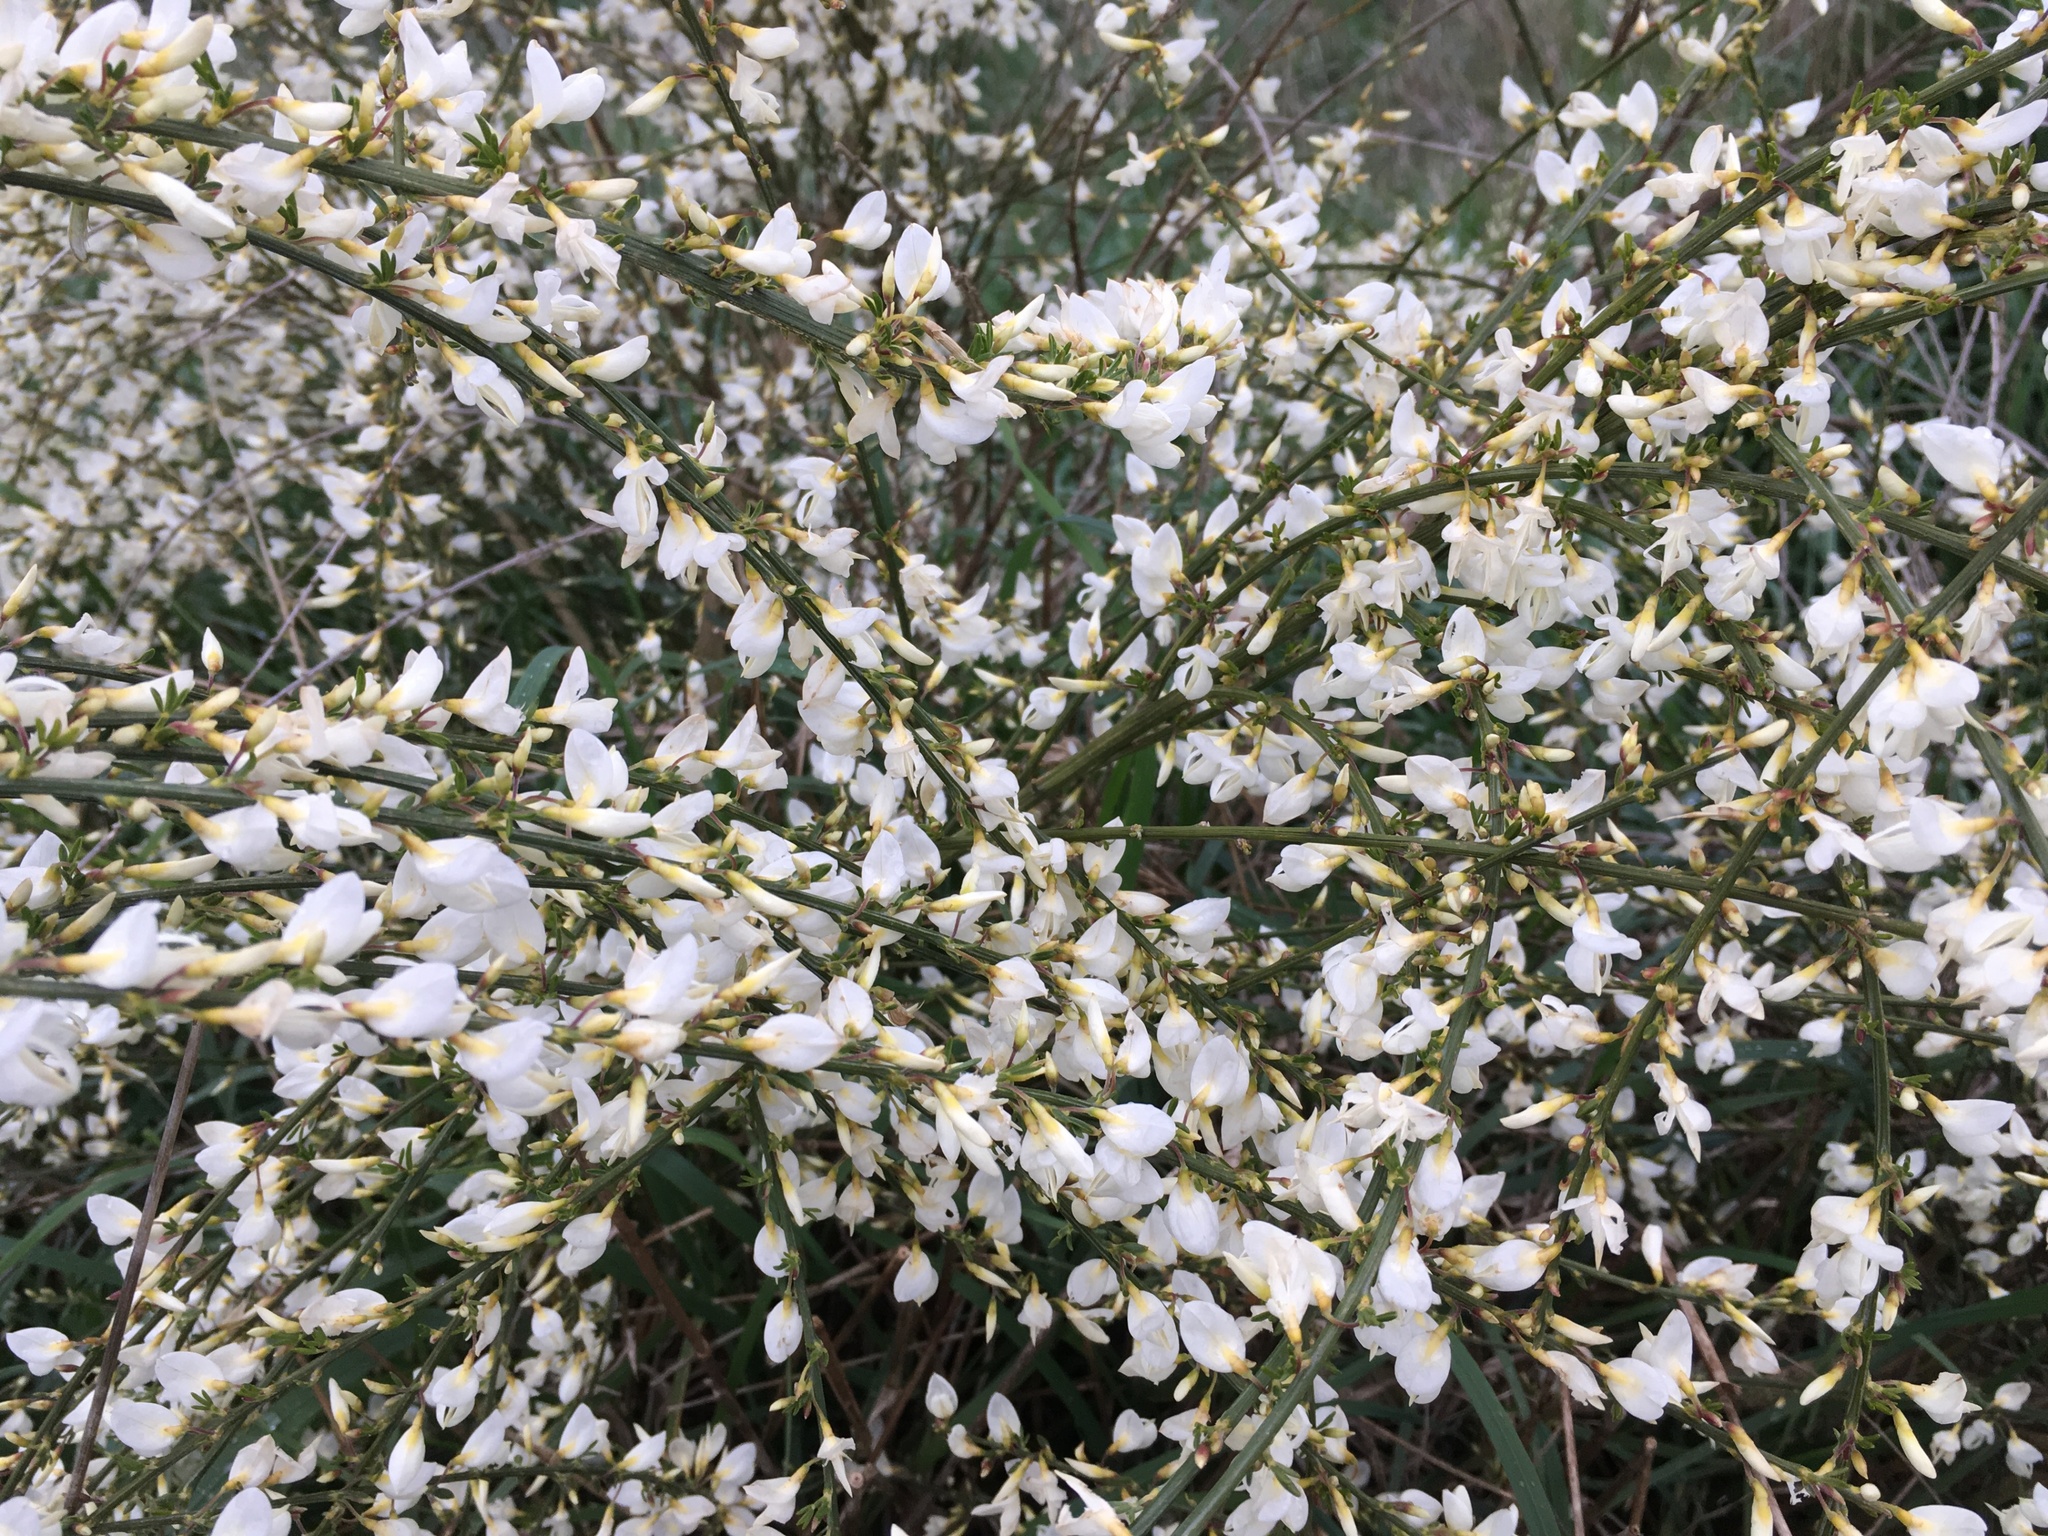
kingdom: Plantae
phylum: Tracheophyta
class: Magnoliopsida
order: Fabales
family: Fabaceae
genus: Cytisus
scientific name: Cytisus multiflorus
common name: White broom
